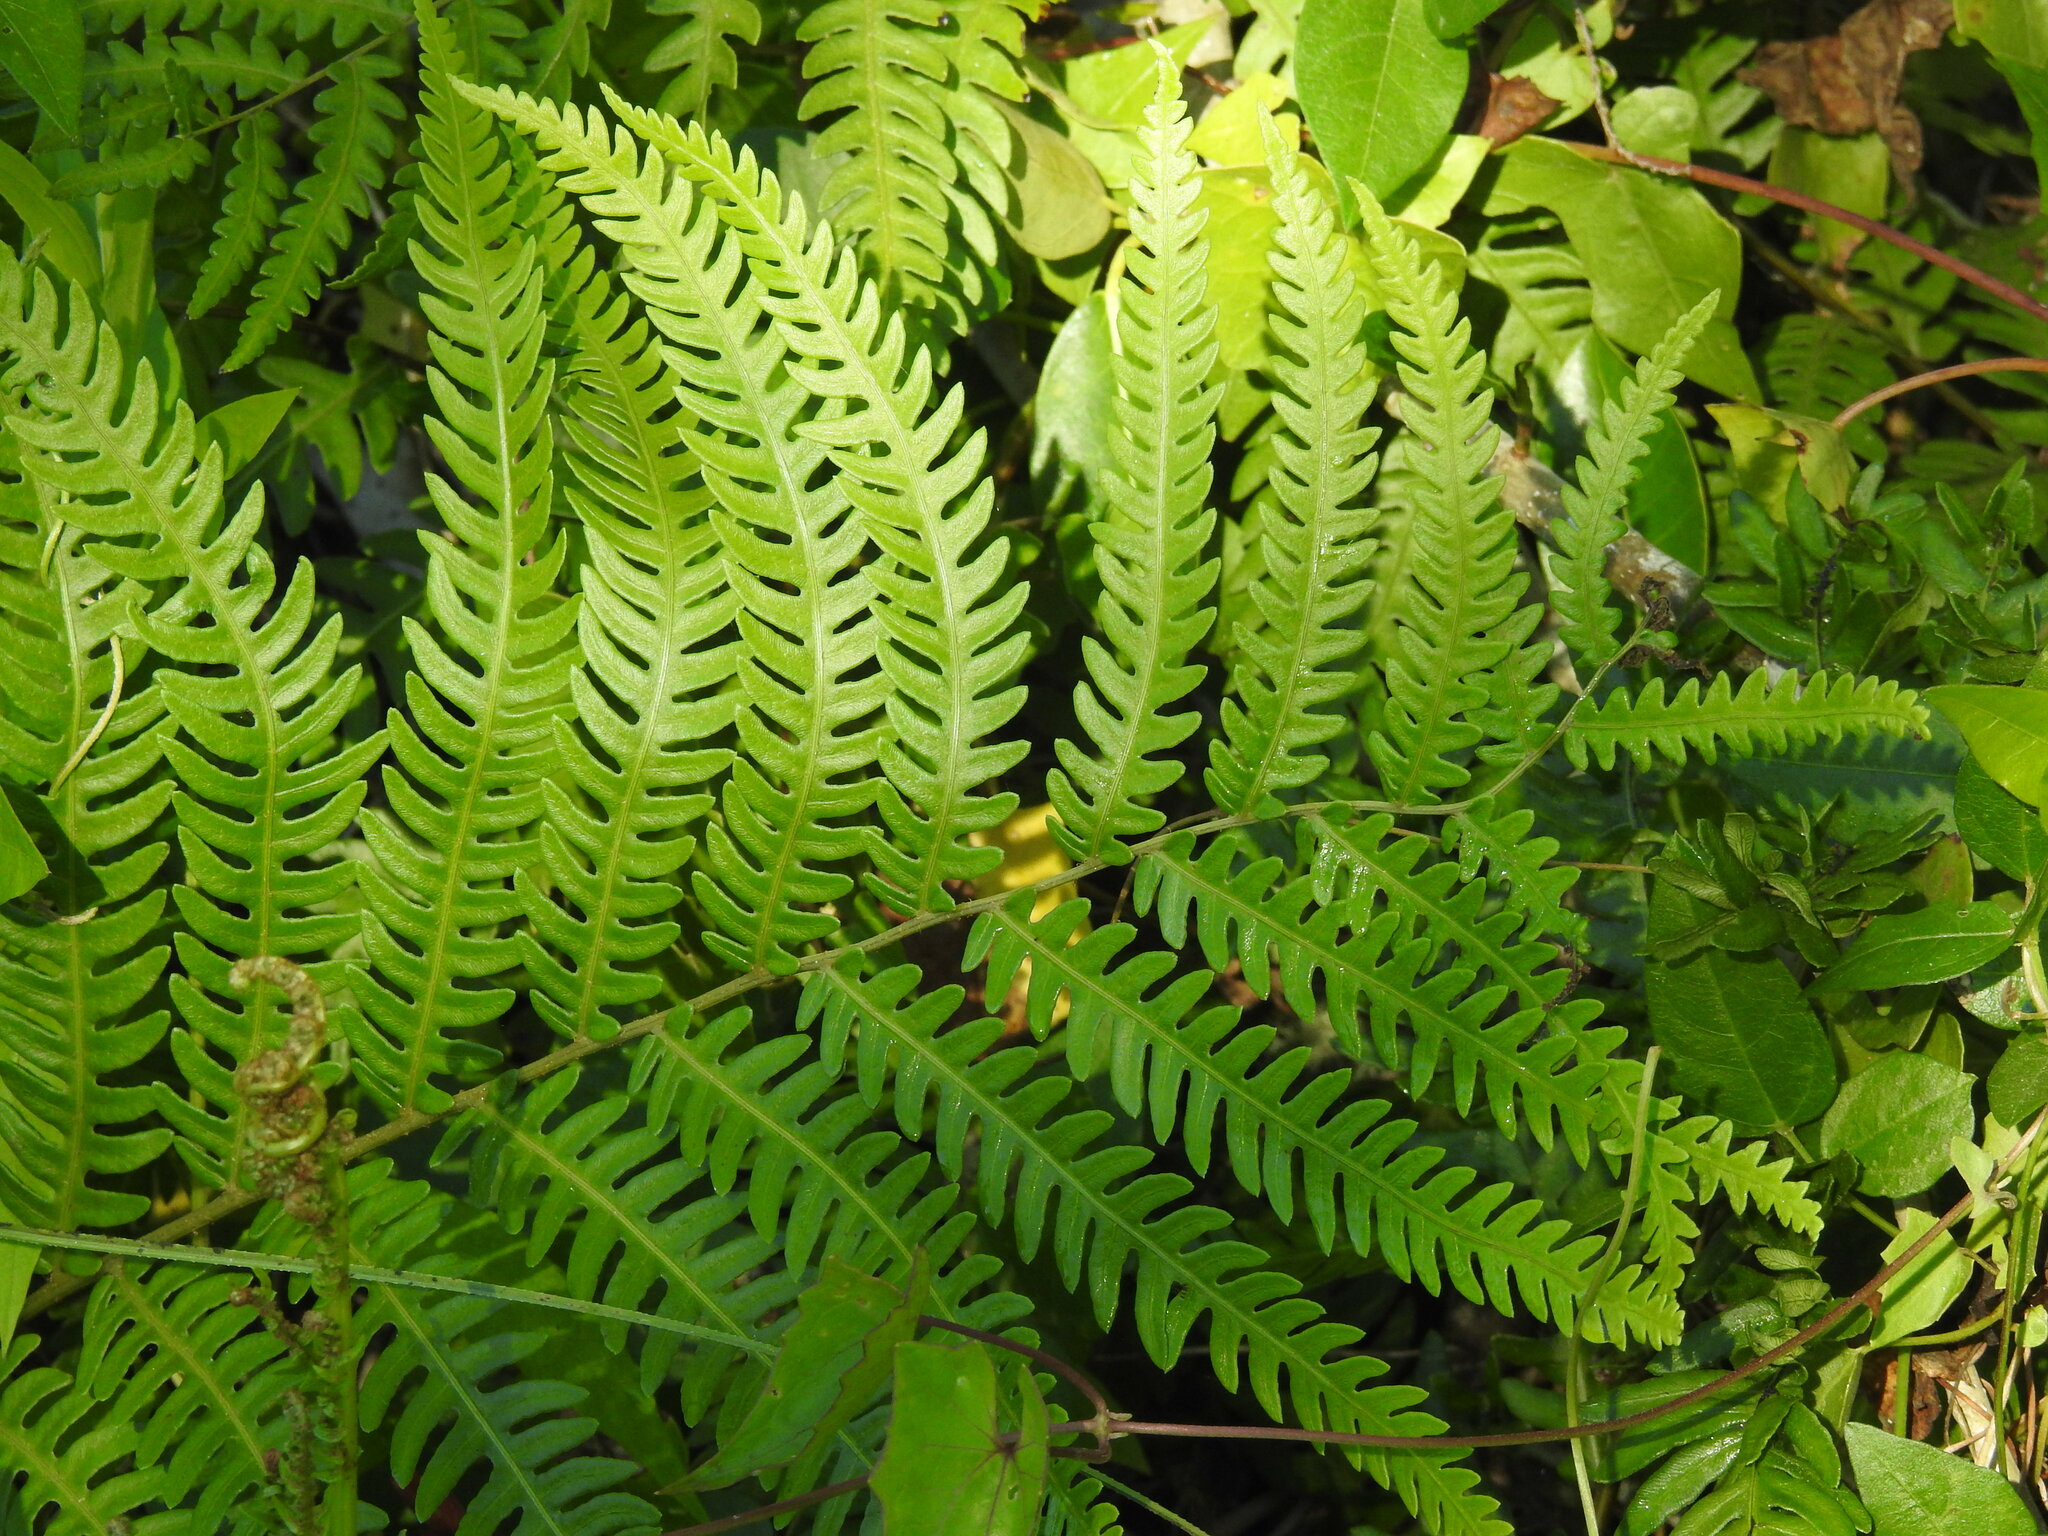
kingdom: Plantae
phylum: Tracheophyta
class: Polypodiopsida
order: Polypodiales
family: Blechnaceae
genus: Anchistea
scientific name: Anchistea virginica
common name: Virginia chain fern
